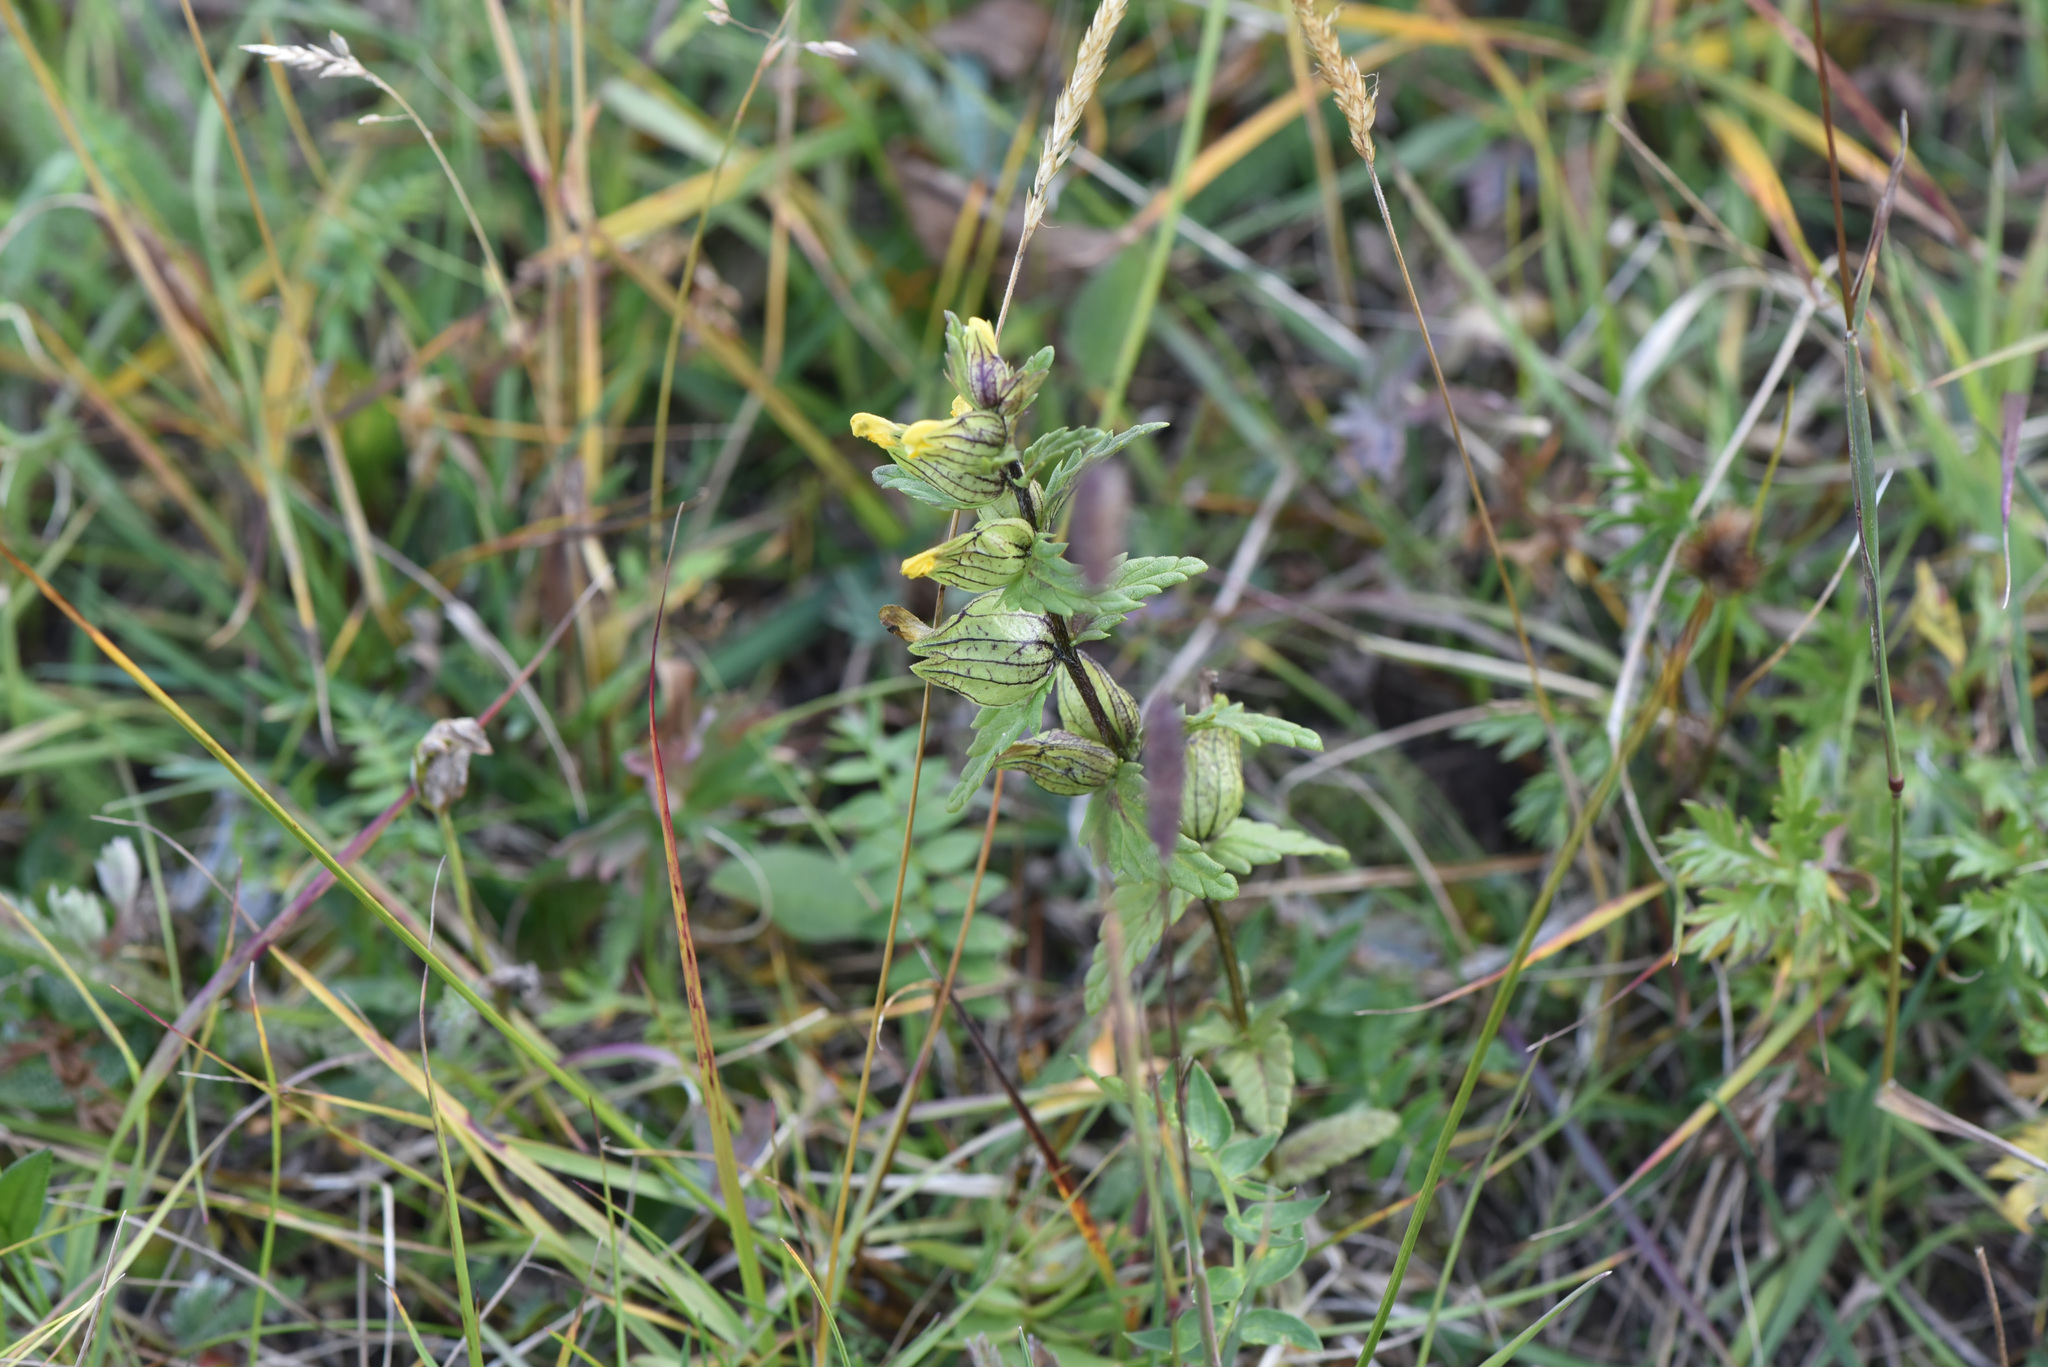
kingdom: Plantae
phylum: Tracheophyta
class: Magnoliopsida
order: Lamiales
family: Orobanchaceae
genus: Rhinanthus
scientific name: Rhinanthus groenlandicus
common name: Little yellow rattle
